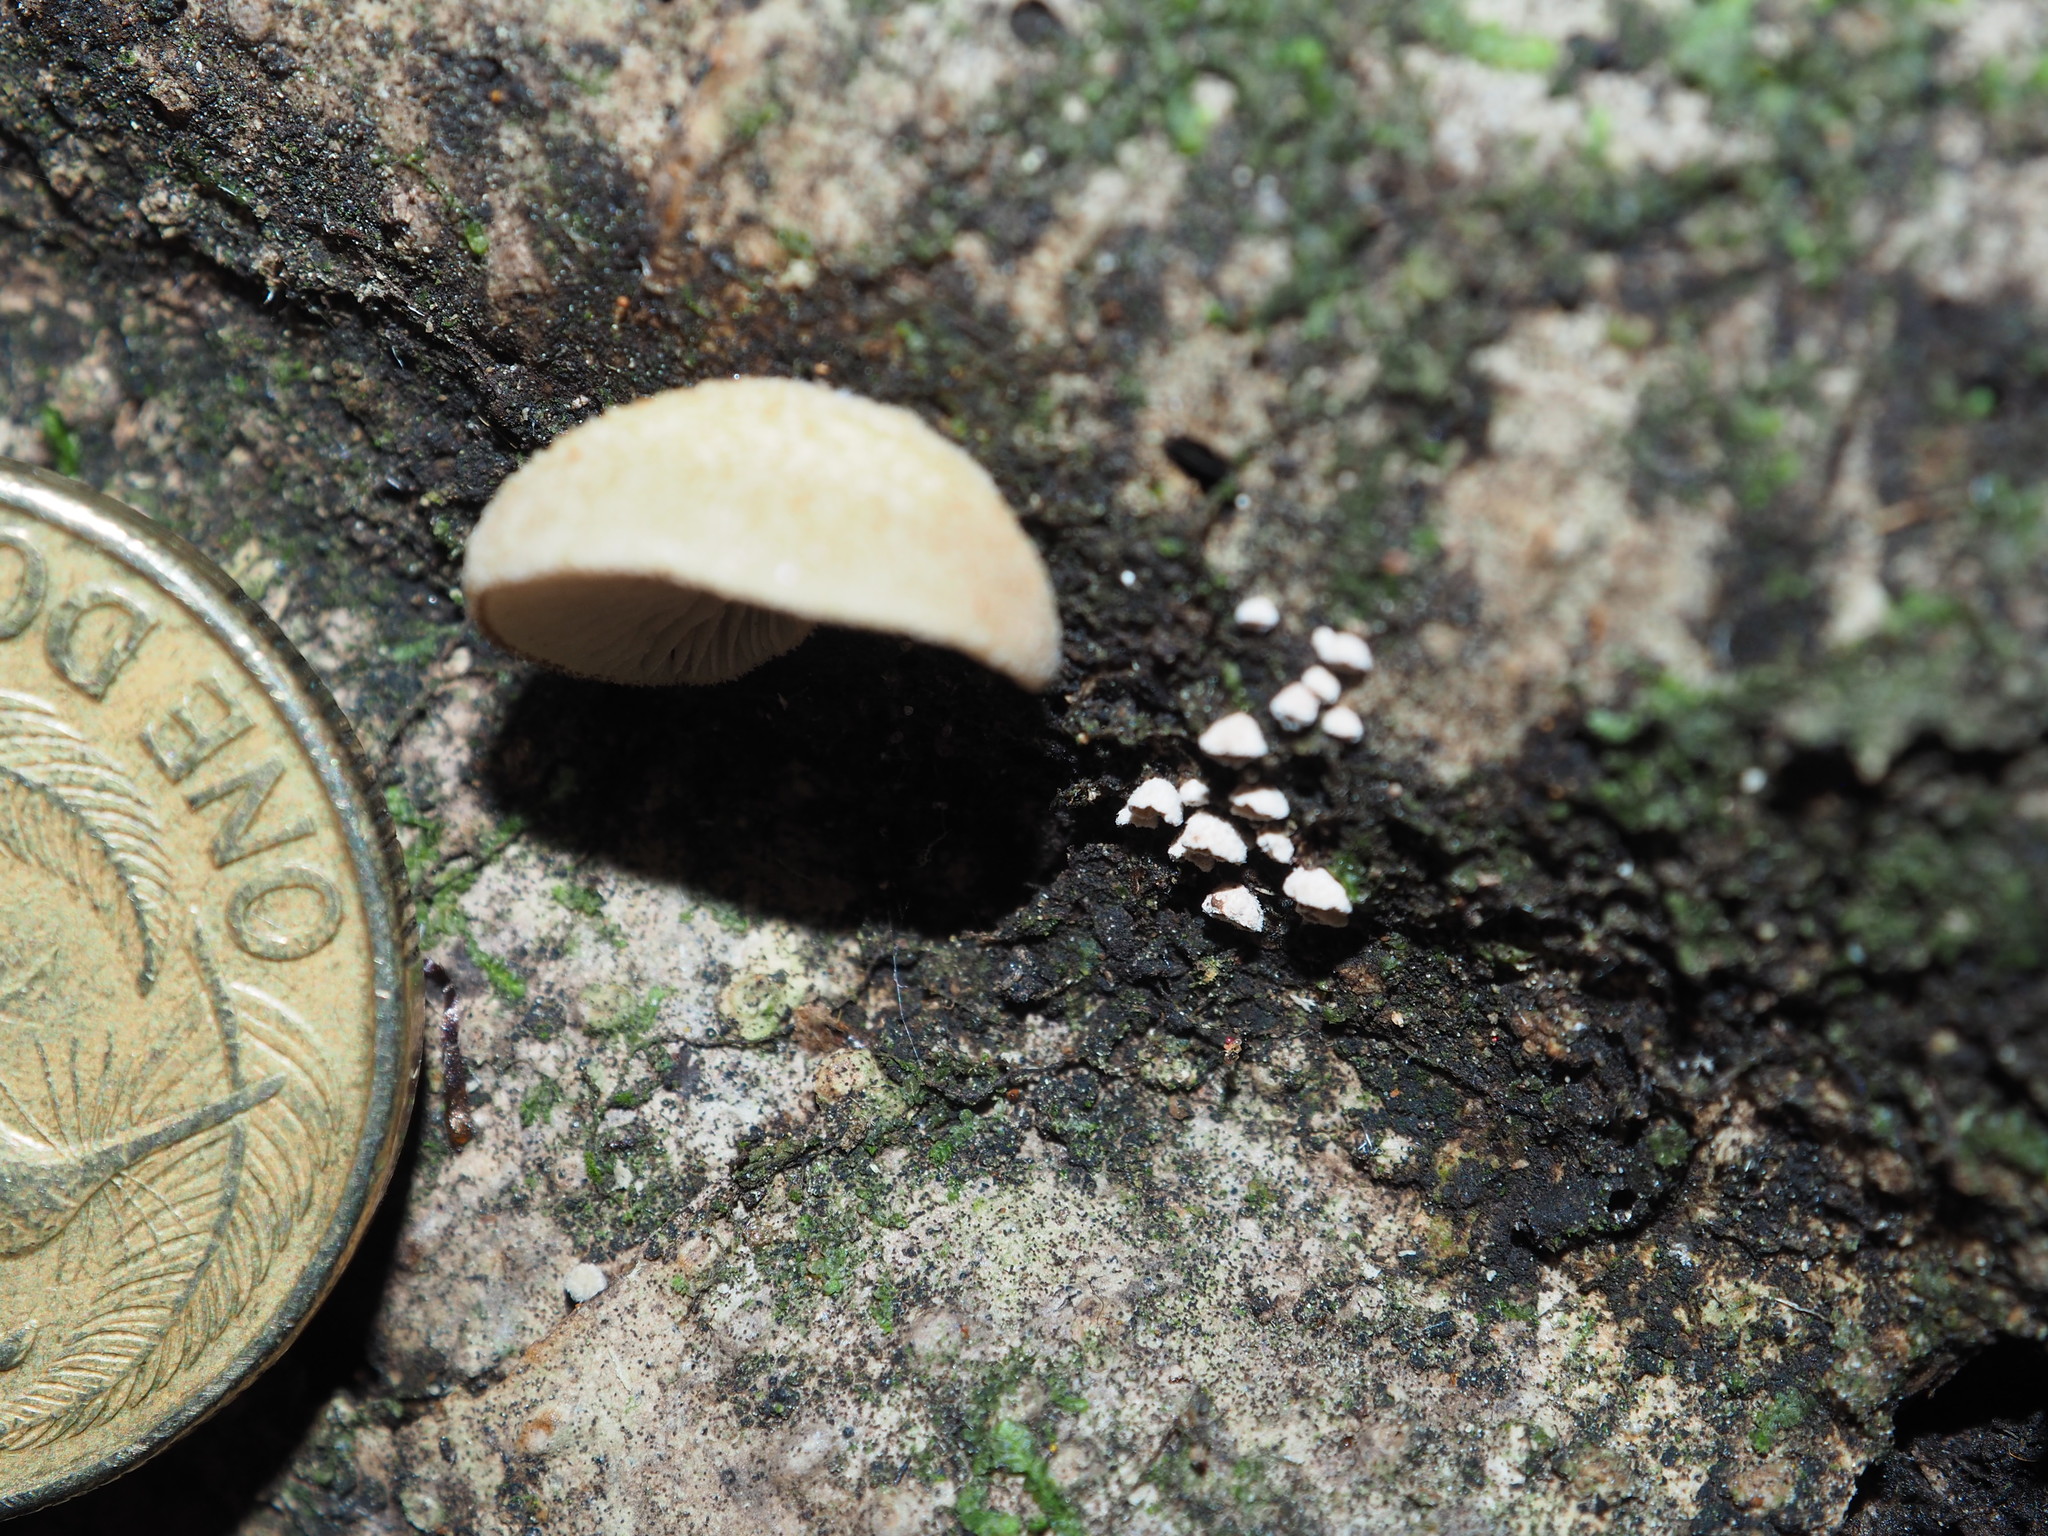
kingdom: Fungi
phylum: Basidiomycota
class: Agaricomycetes
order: Agaricales
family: Chromocyphellaceae
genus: Chromocyphella
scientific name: Chromocyphella muscicola
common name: Moss ear
